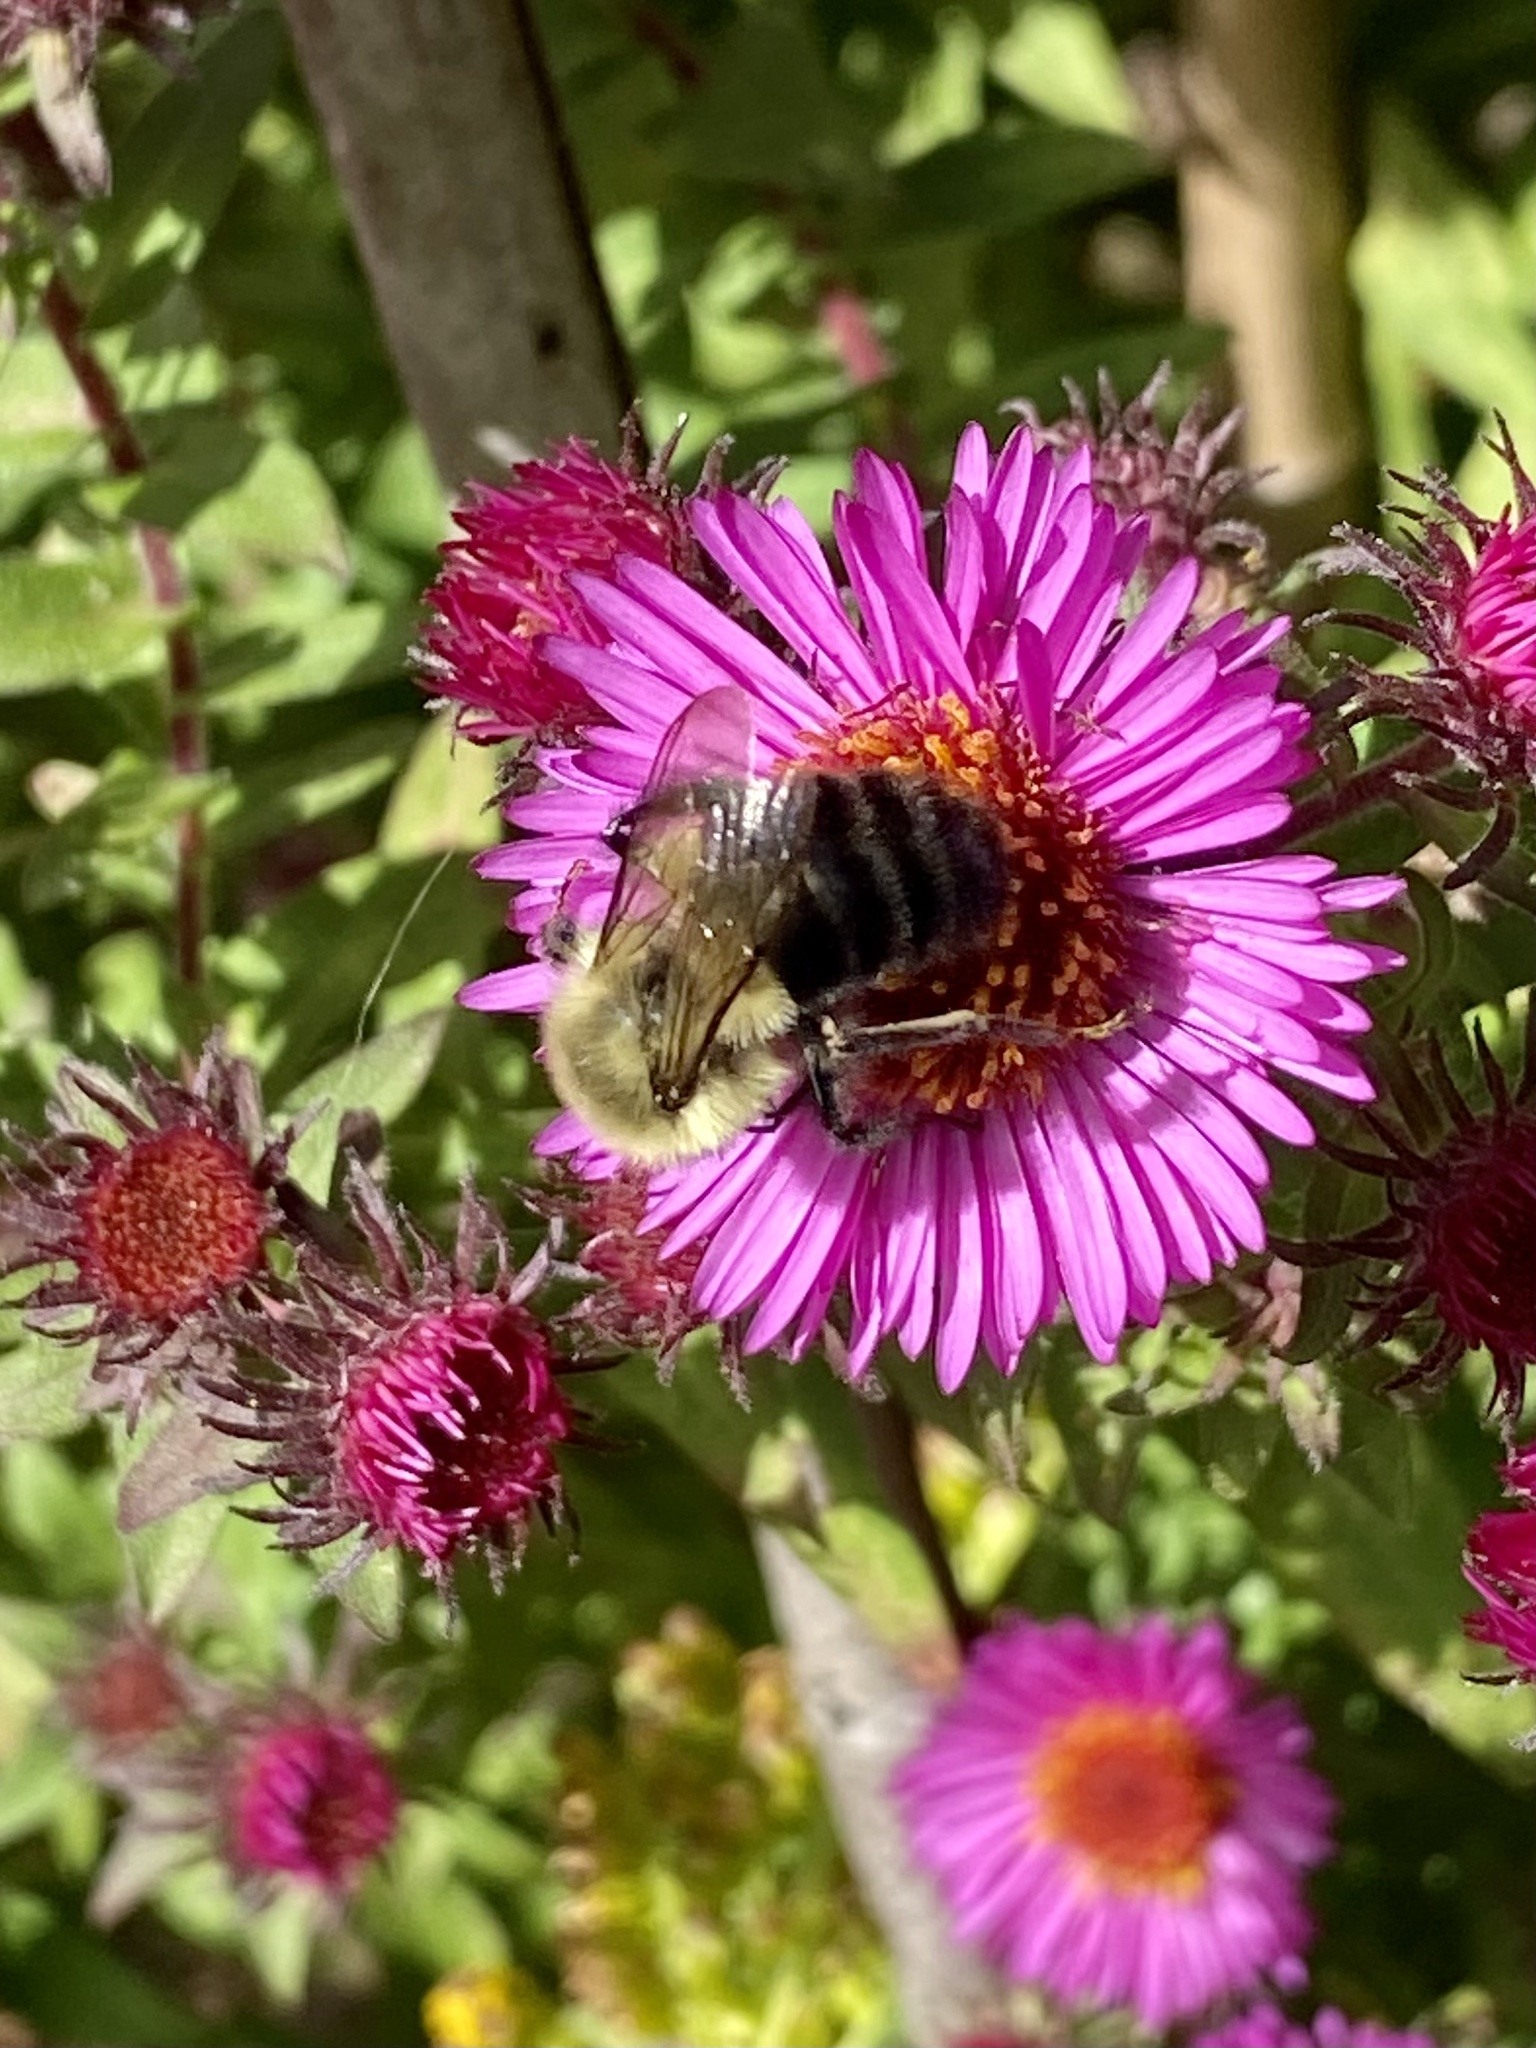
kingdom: Animalia
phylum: Arthropoda
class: Insecta
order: Hymenoptera
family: Apidae
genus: Bombus
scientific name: Bombus impatiens
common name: Common eastern bumble bee
